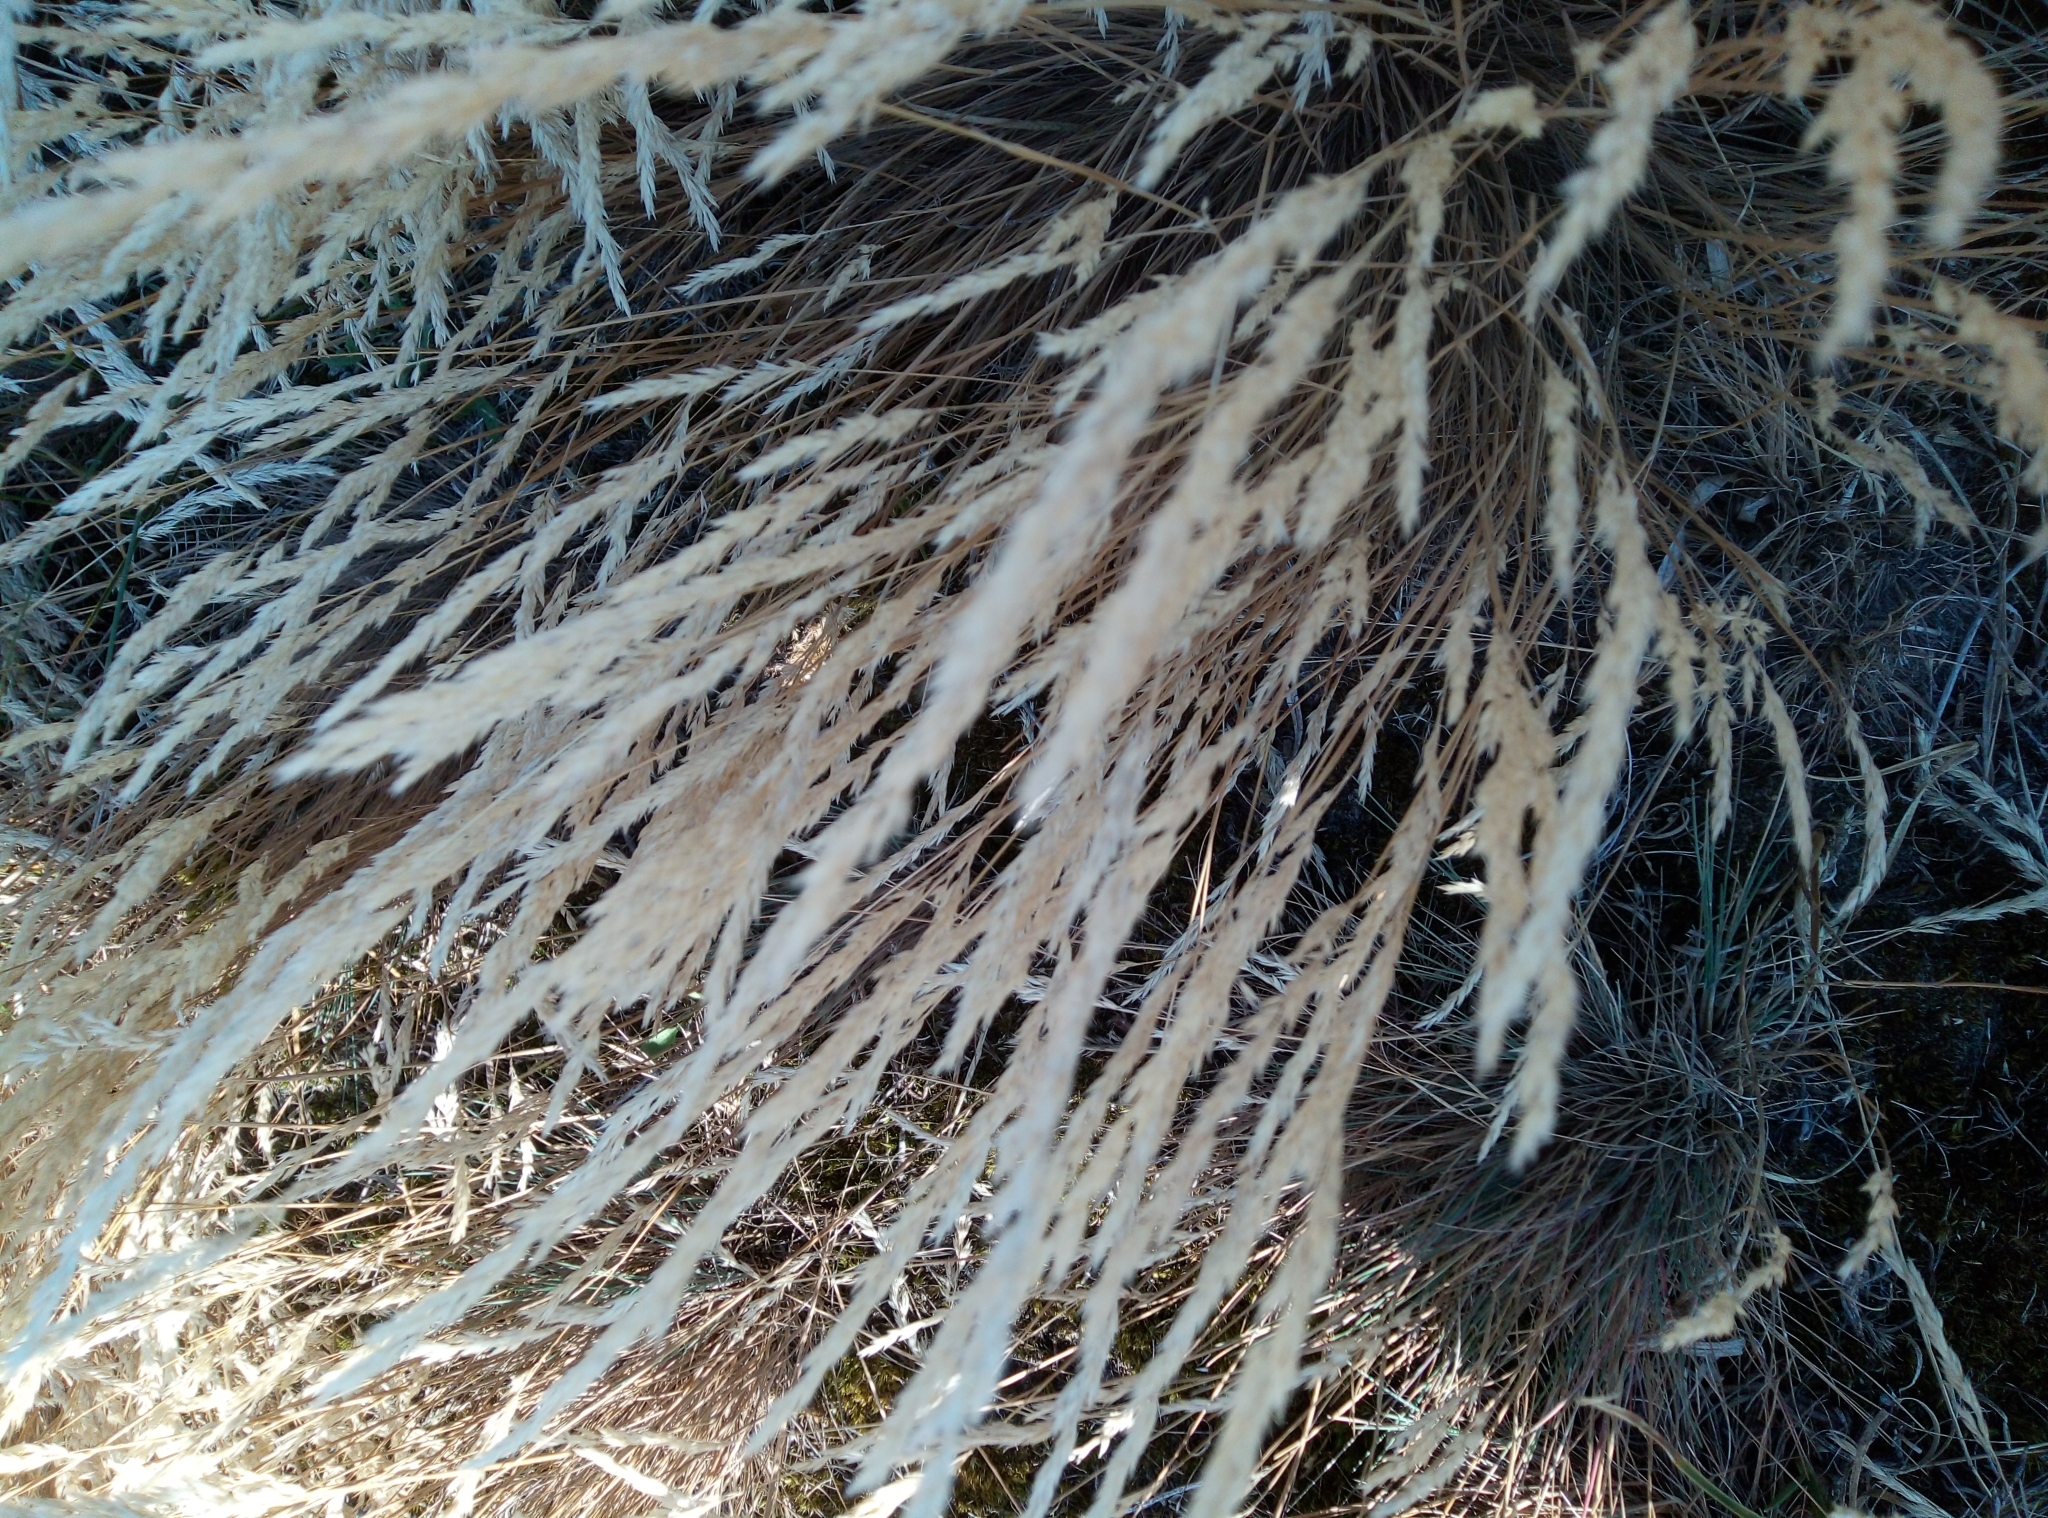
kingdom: Plantae
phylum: Tracheophyta
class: Liliopsida
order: Poales
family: Poaceae
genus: Corynephorus
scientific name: Corynephorus canescens
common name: Grey hair-grass
